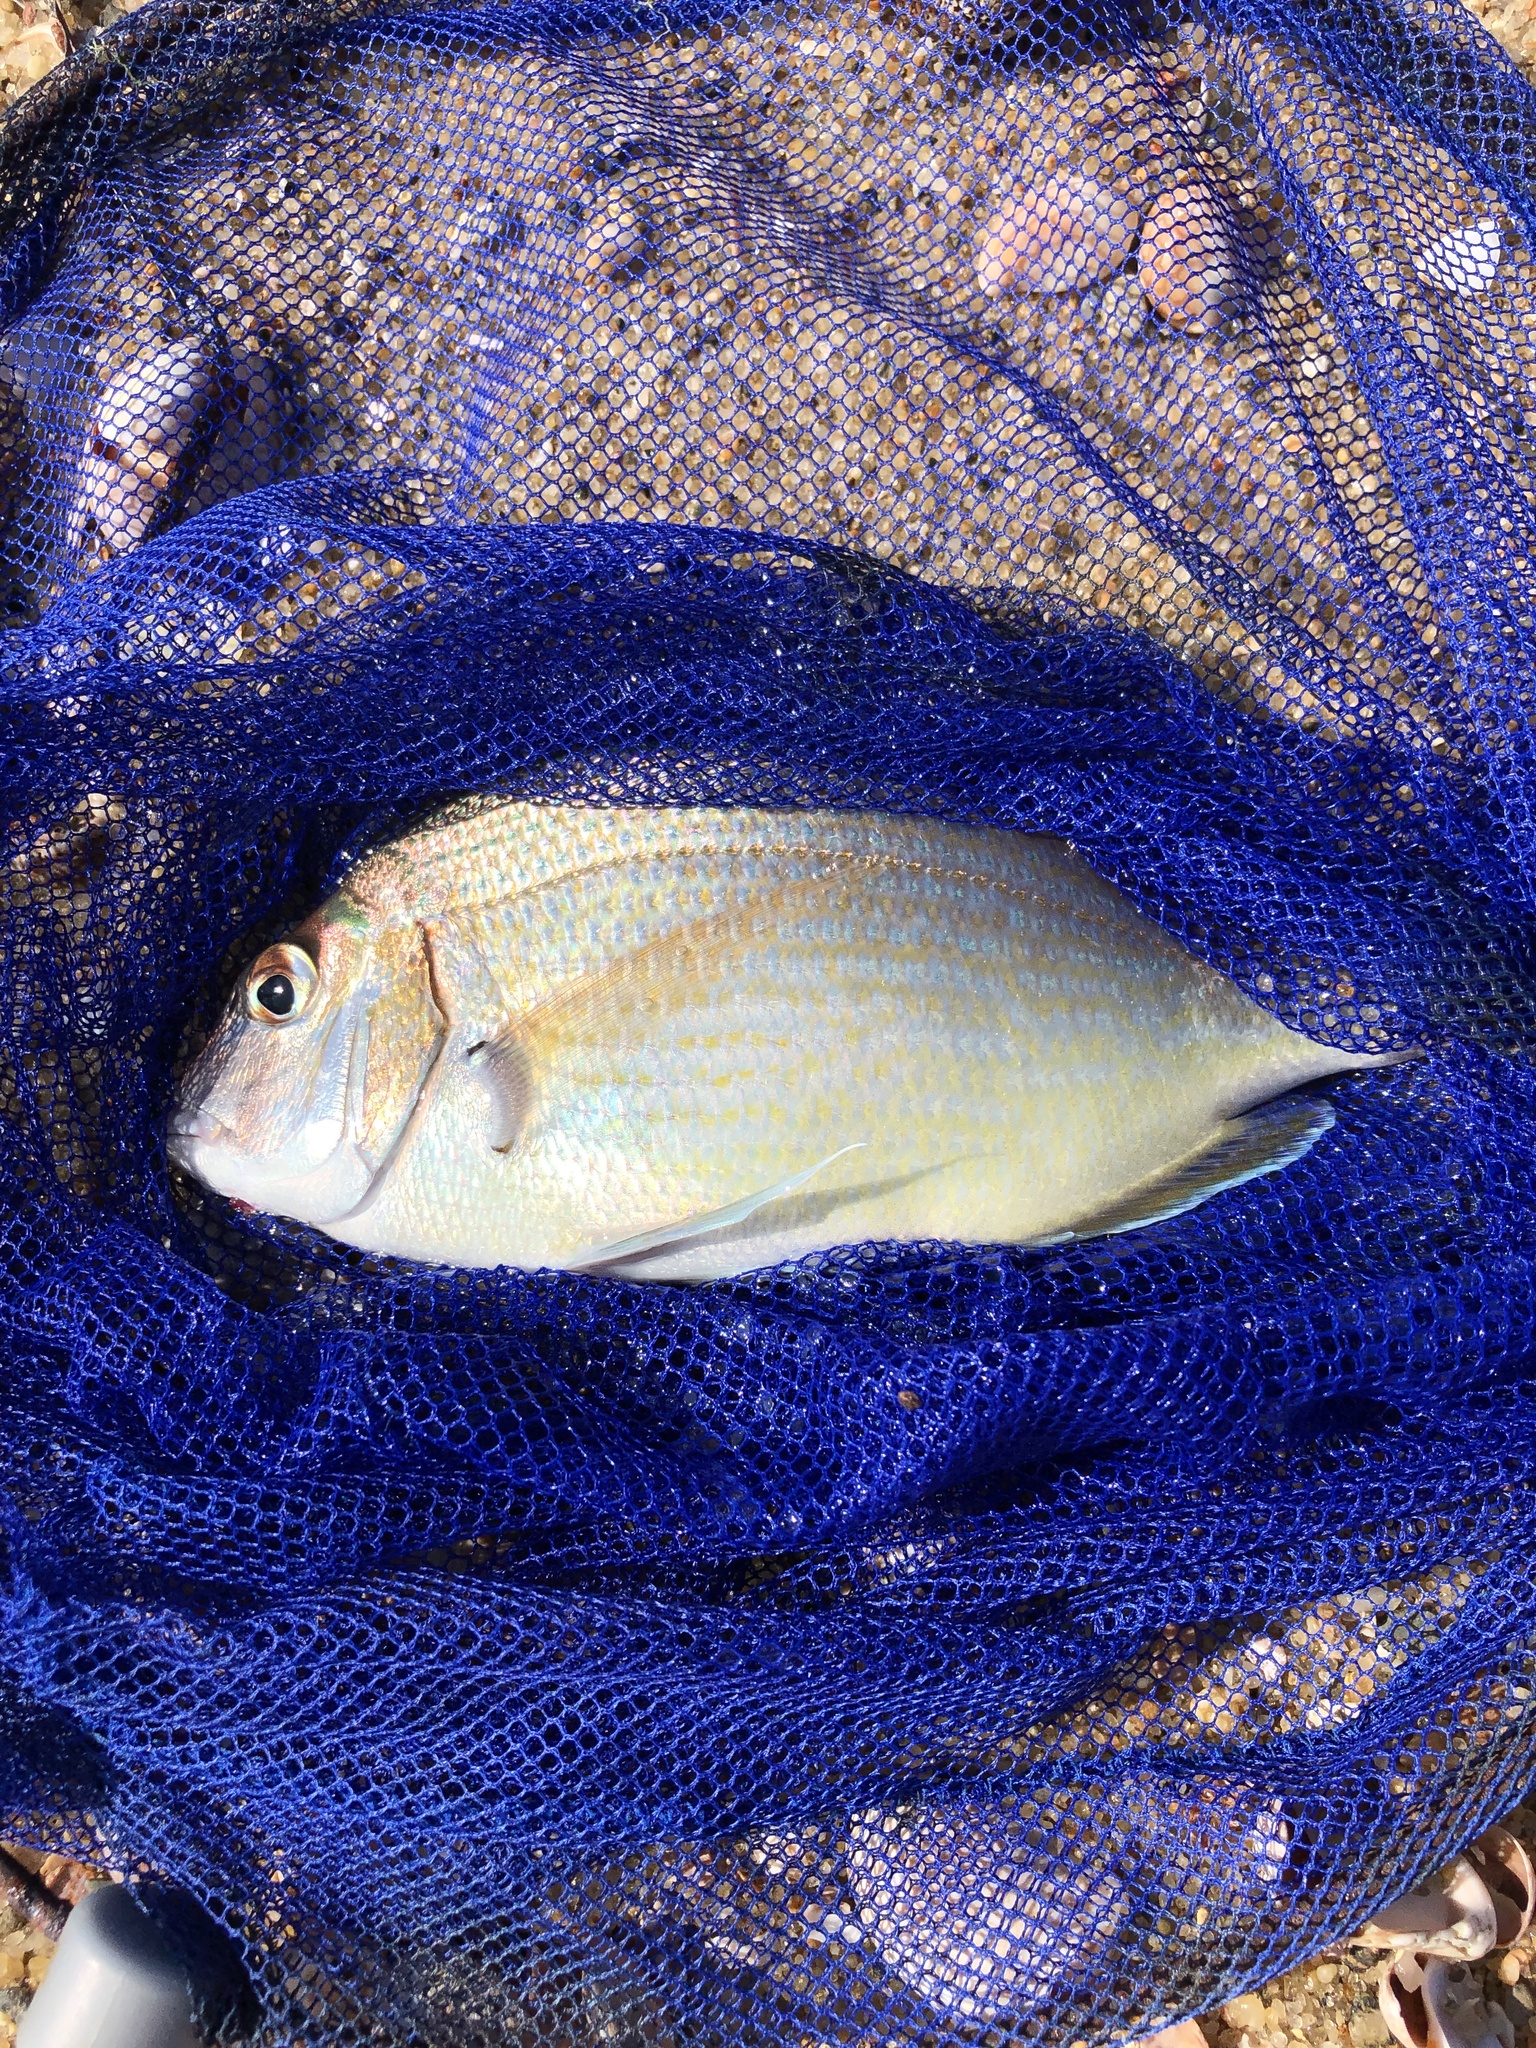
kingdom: Animalia
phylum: Chordata
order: Perciformes
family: Sparidae
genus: Stenotomus
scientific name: Stenotomus chrysops
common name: Scup
